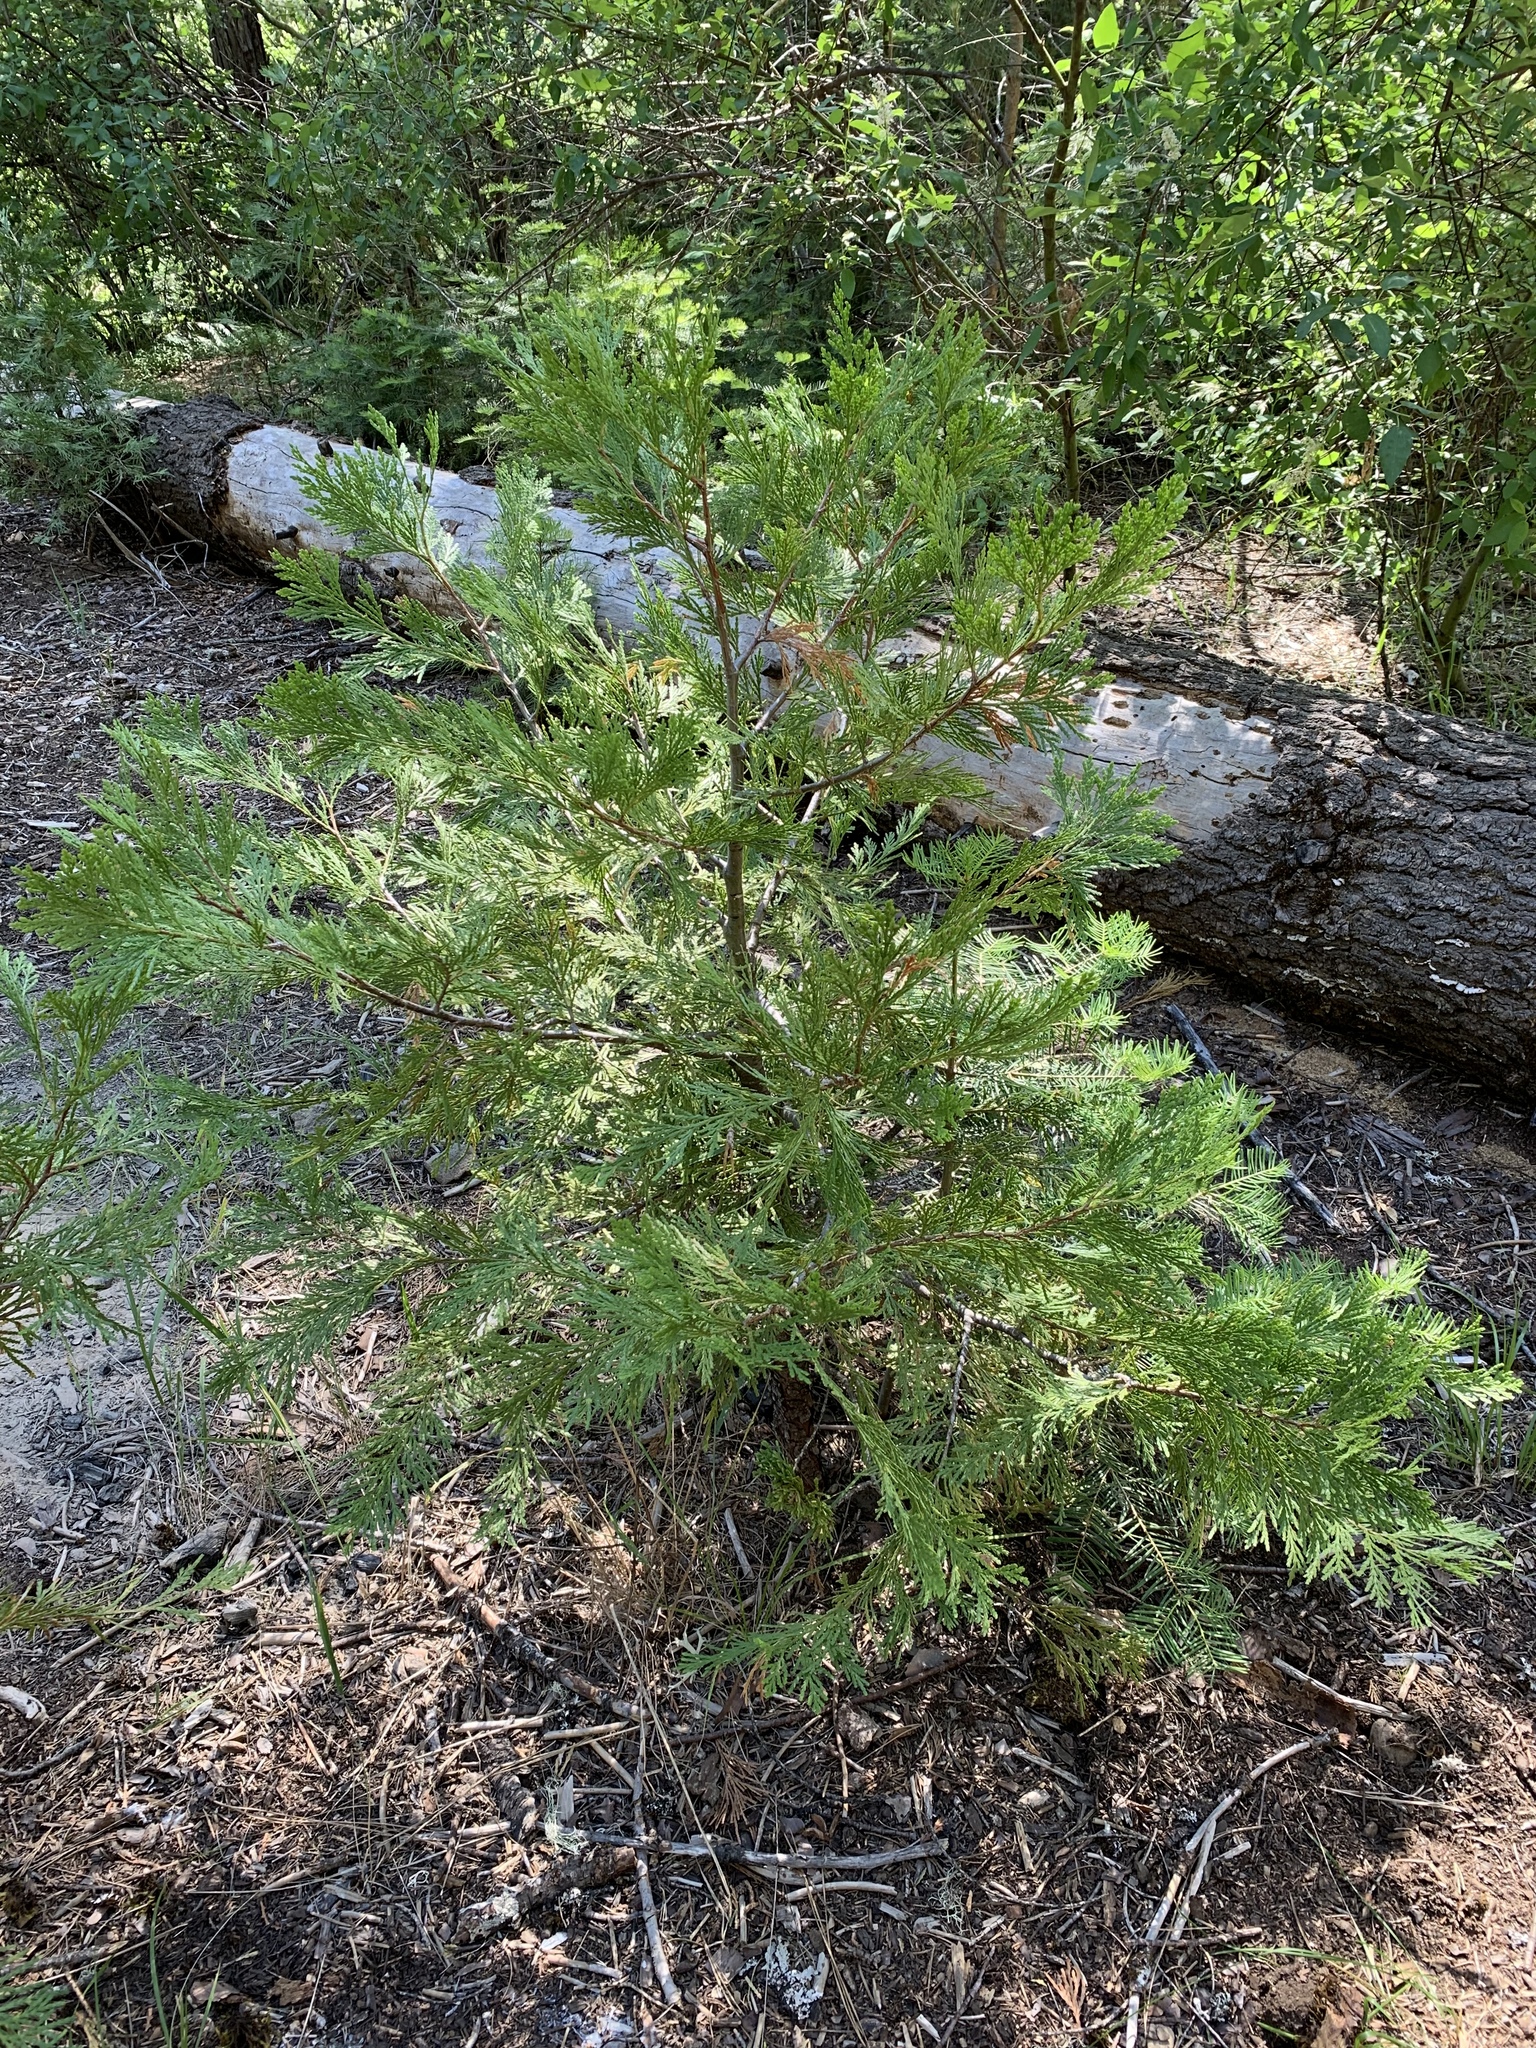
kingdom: Plantae
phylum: Tracheophyta
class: Pinopsida
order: Pinales
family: Cupressaceae
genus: Calocedrus
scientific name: Calocedrus decurrens
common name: Californian incense-cedar
